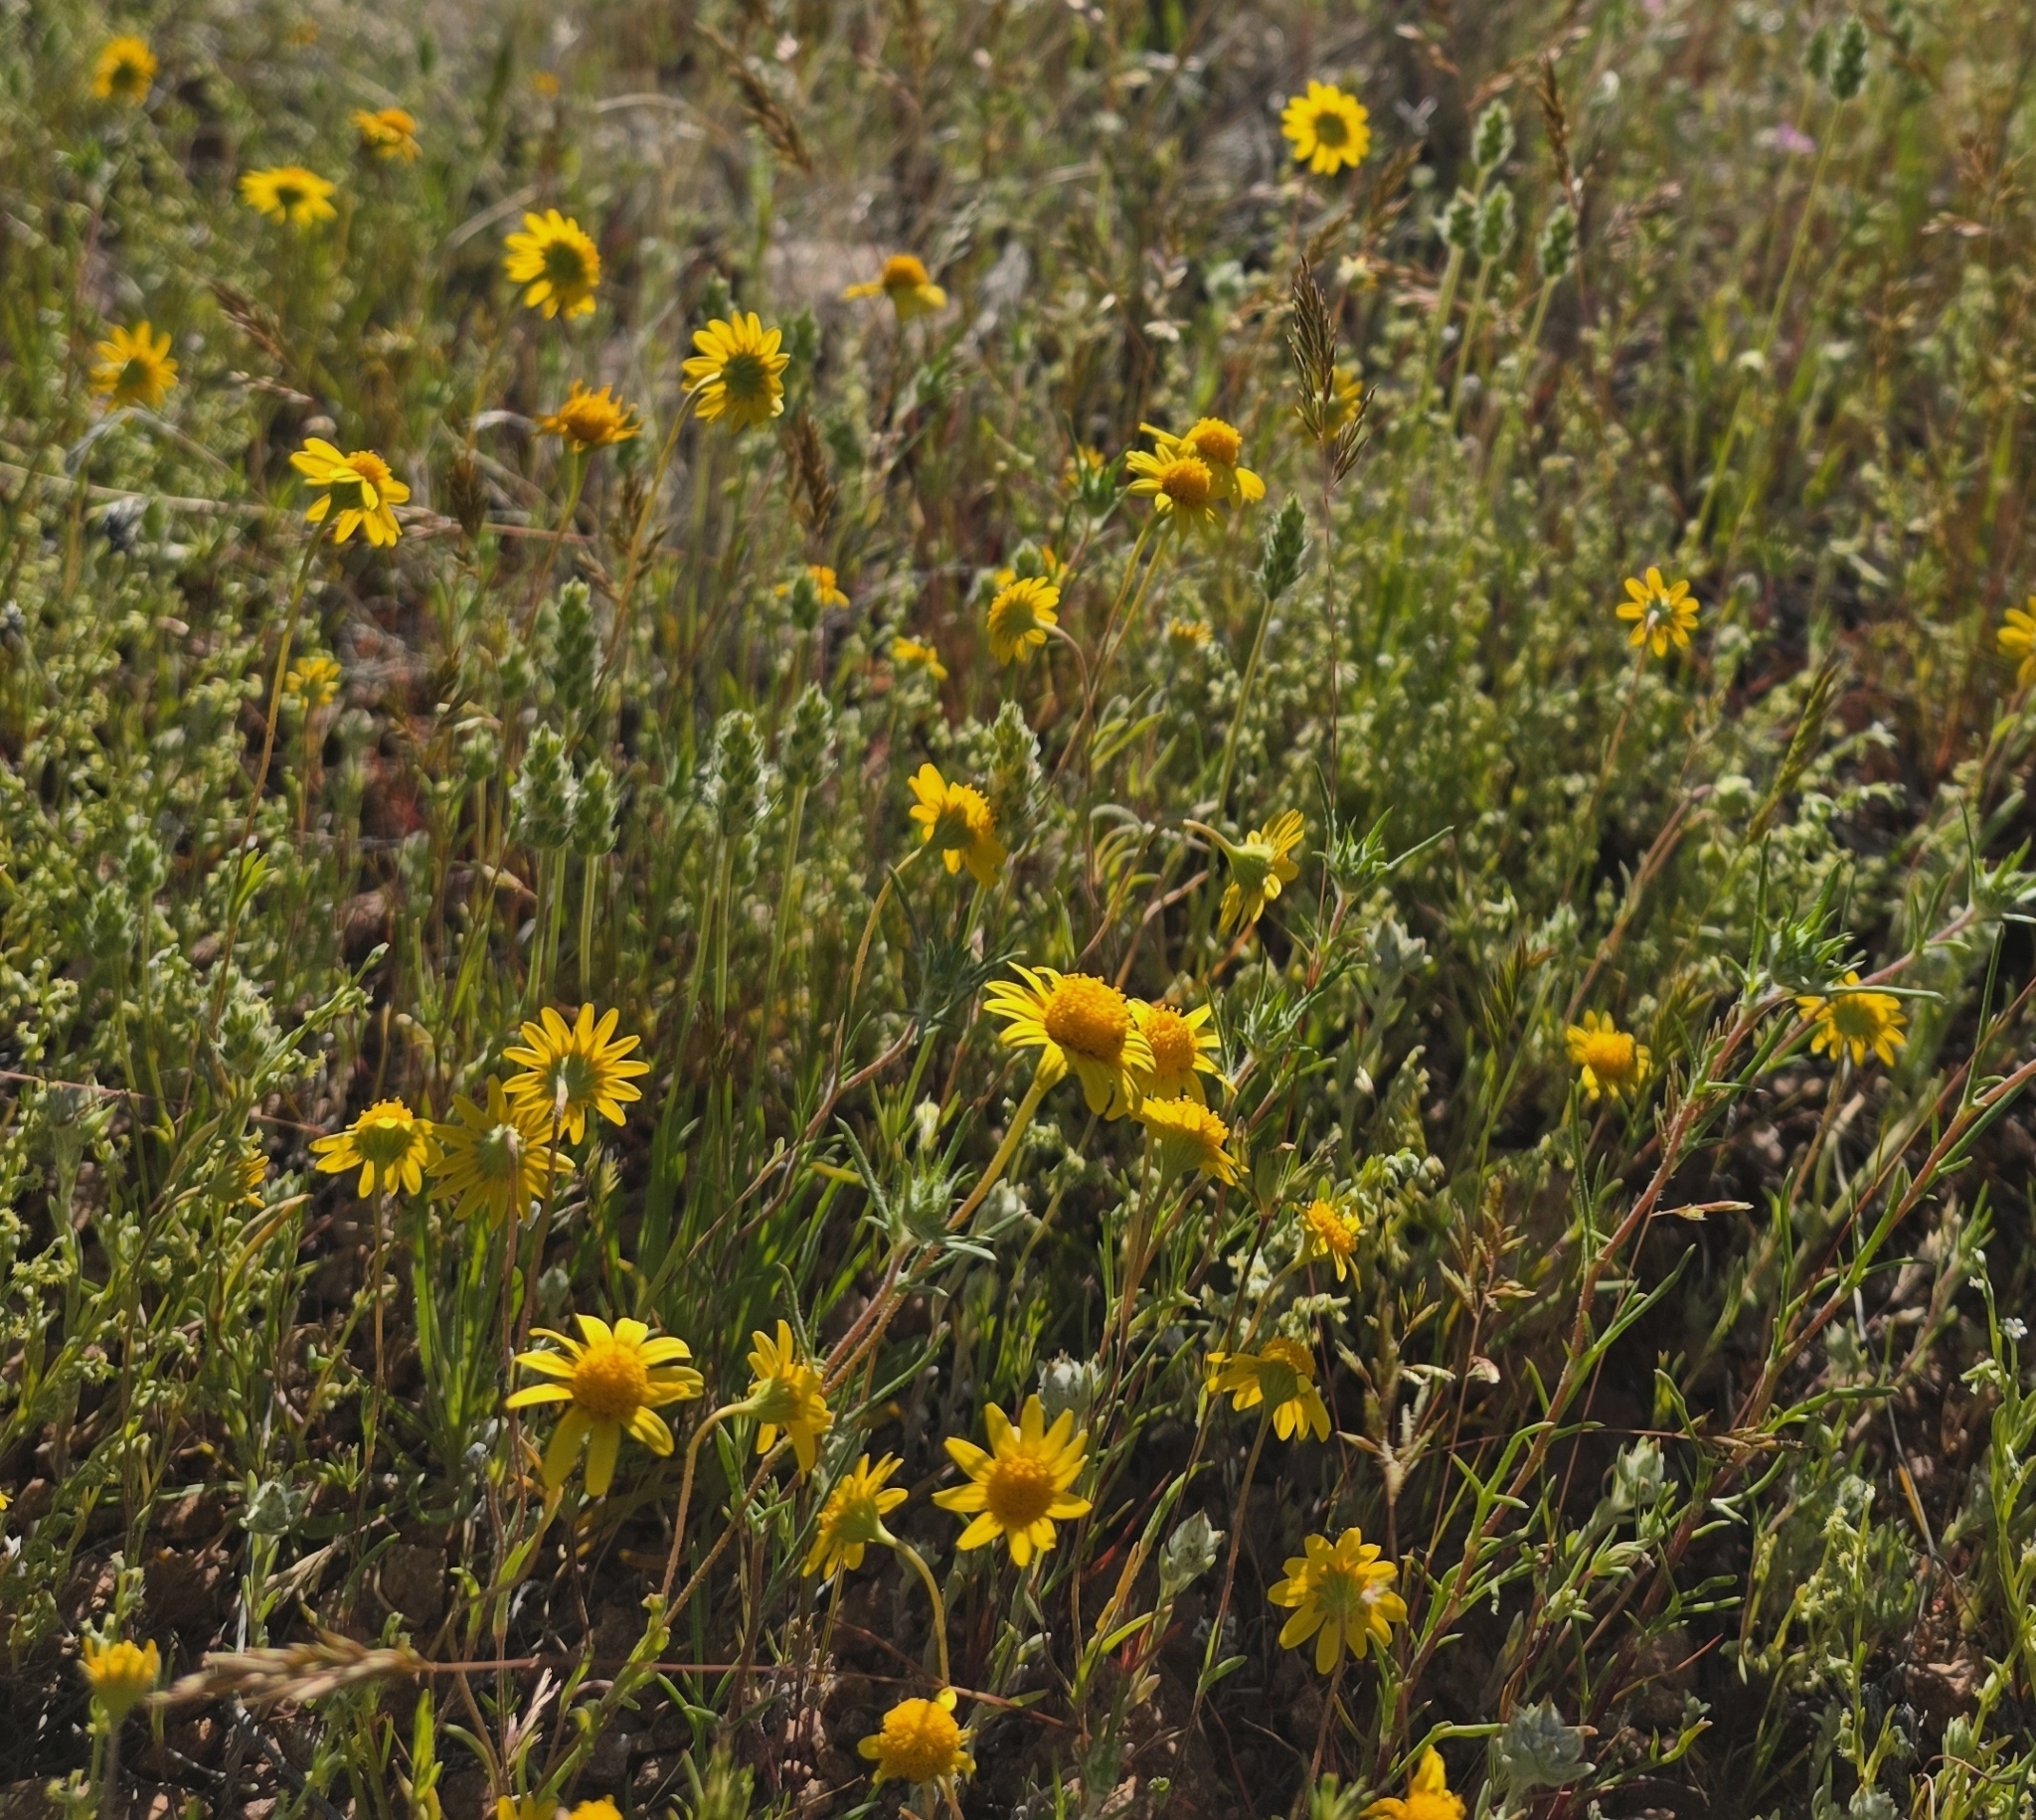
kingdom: Plantae
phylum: Tracheophyta
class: Magnoliopsida
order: Asterales
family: Asteraceae
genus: Lasthenia
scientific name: Lasthenia gracilis
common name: Common goldfields
